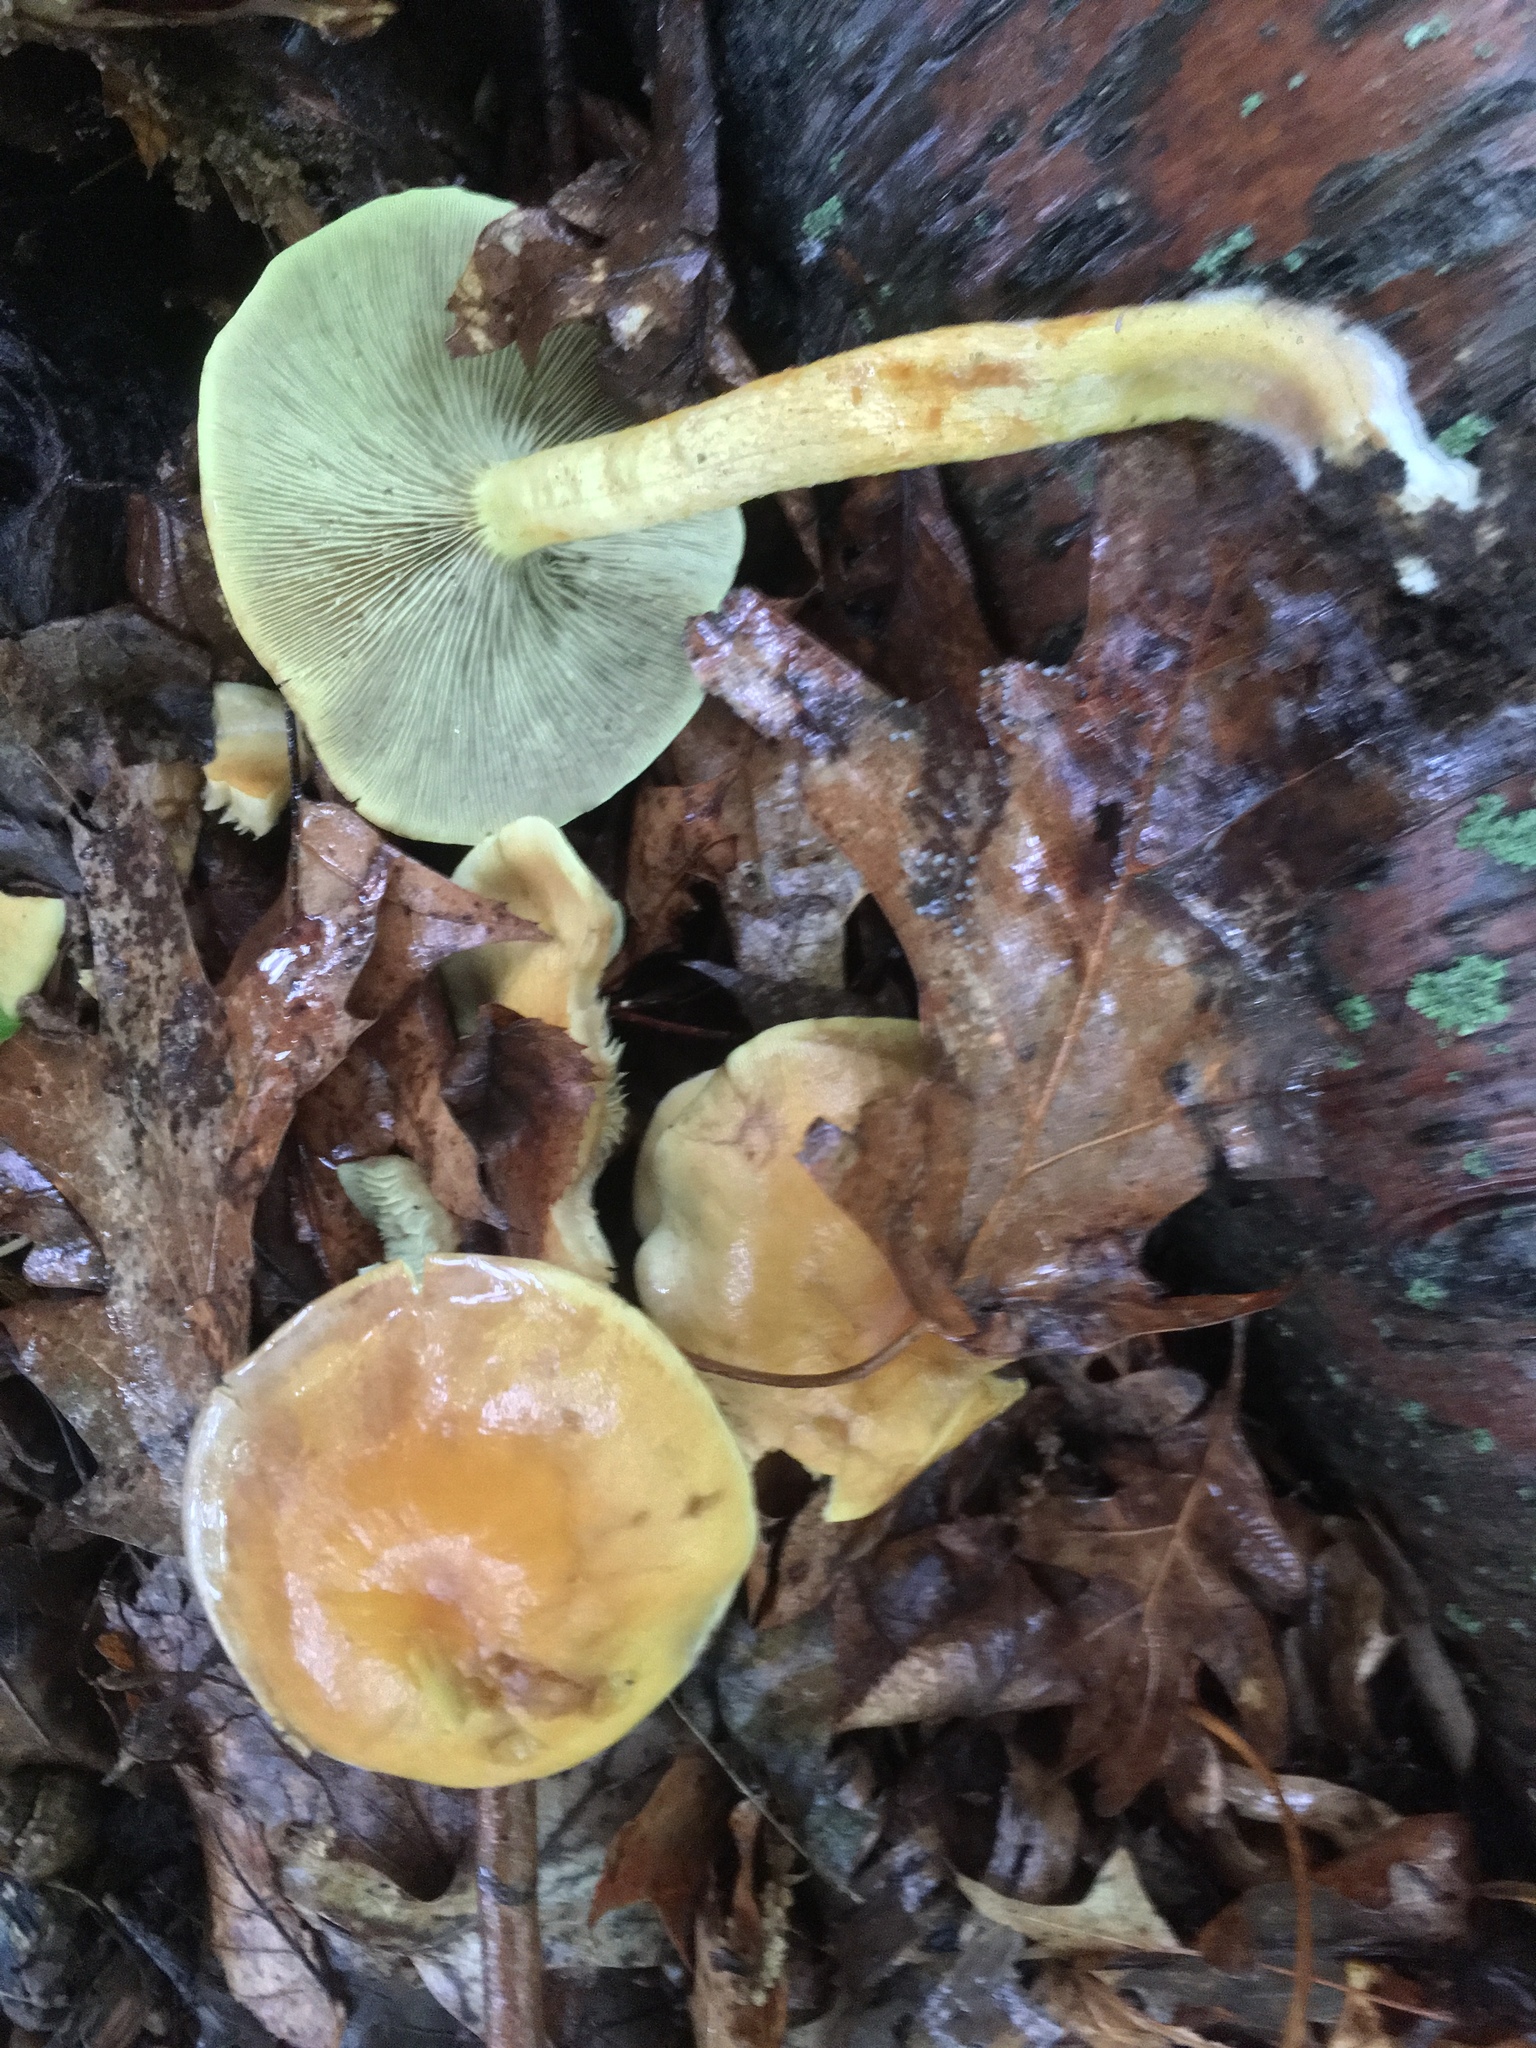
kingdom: Fungi
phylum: Basidiomycota
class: Agaricomycetes
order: Agaricales
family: Strophariaceae
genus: Hypholoma
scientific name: Hypholoma fasciculare
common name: Sulphur tuft
